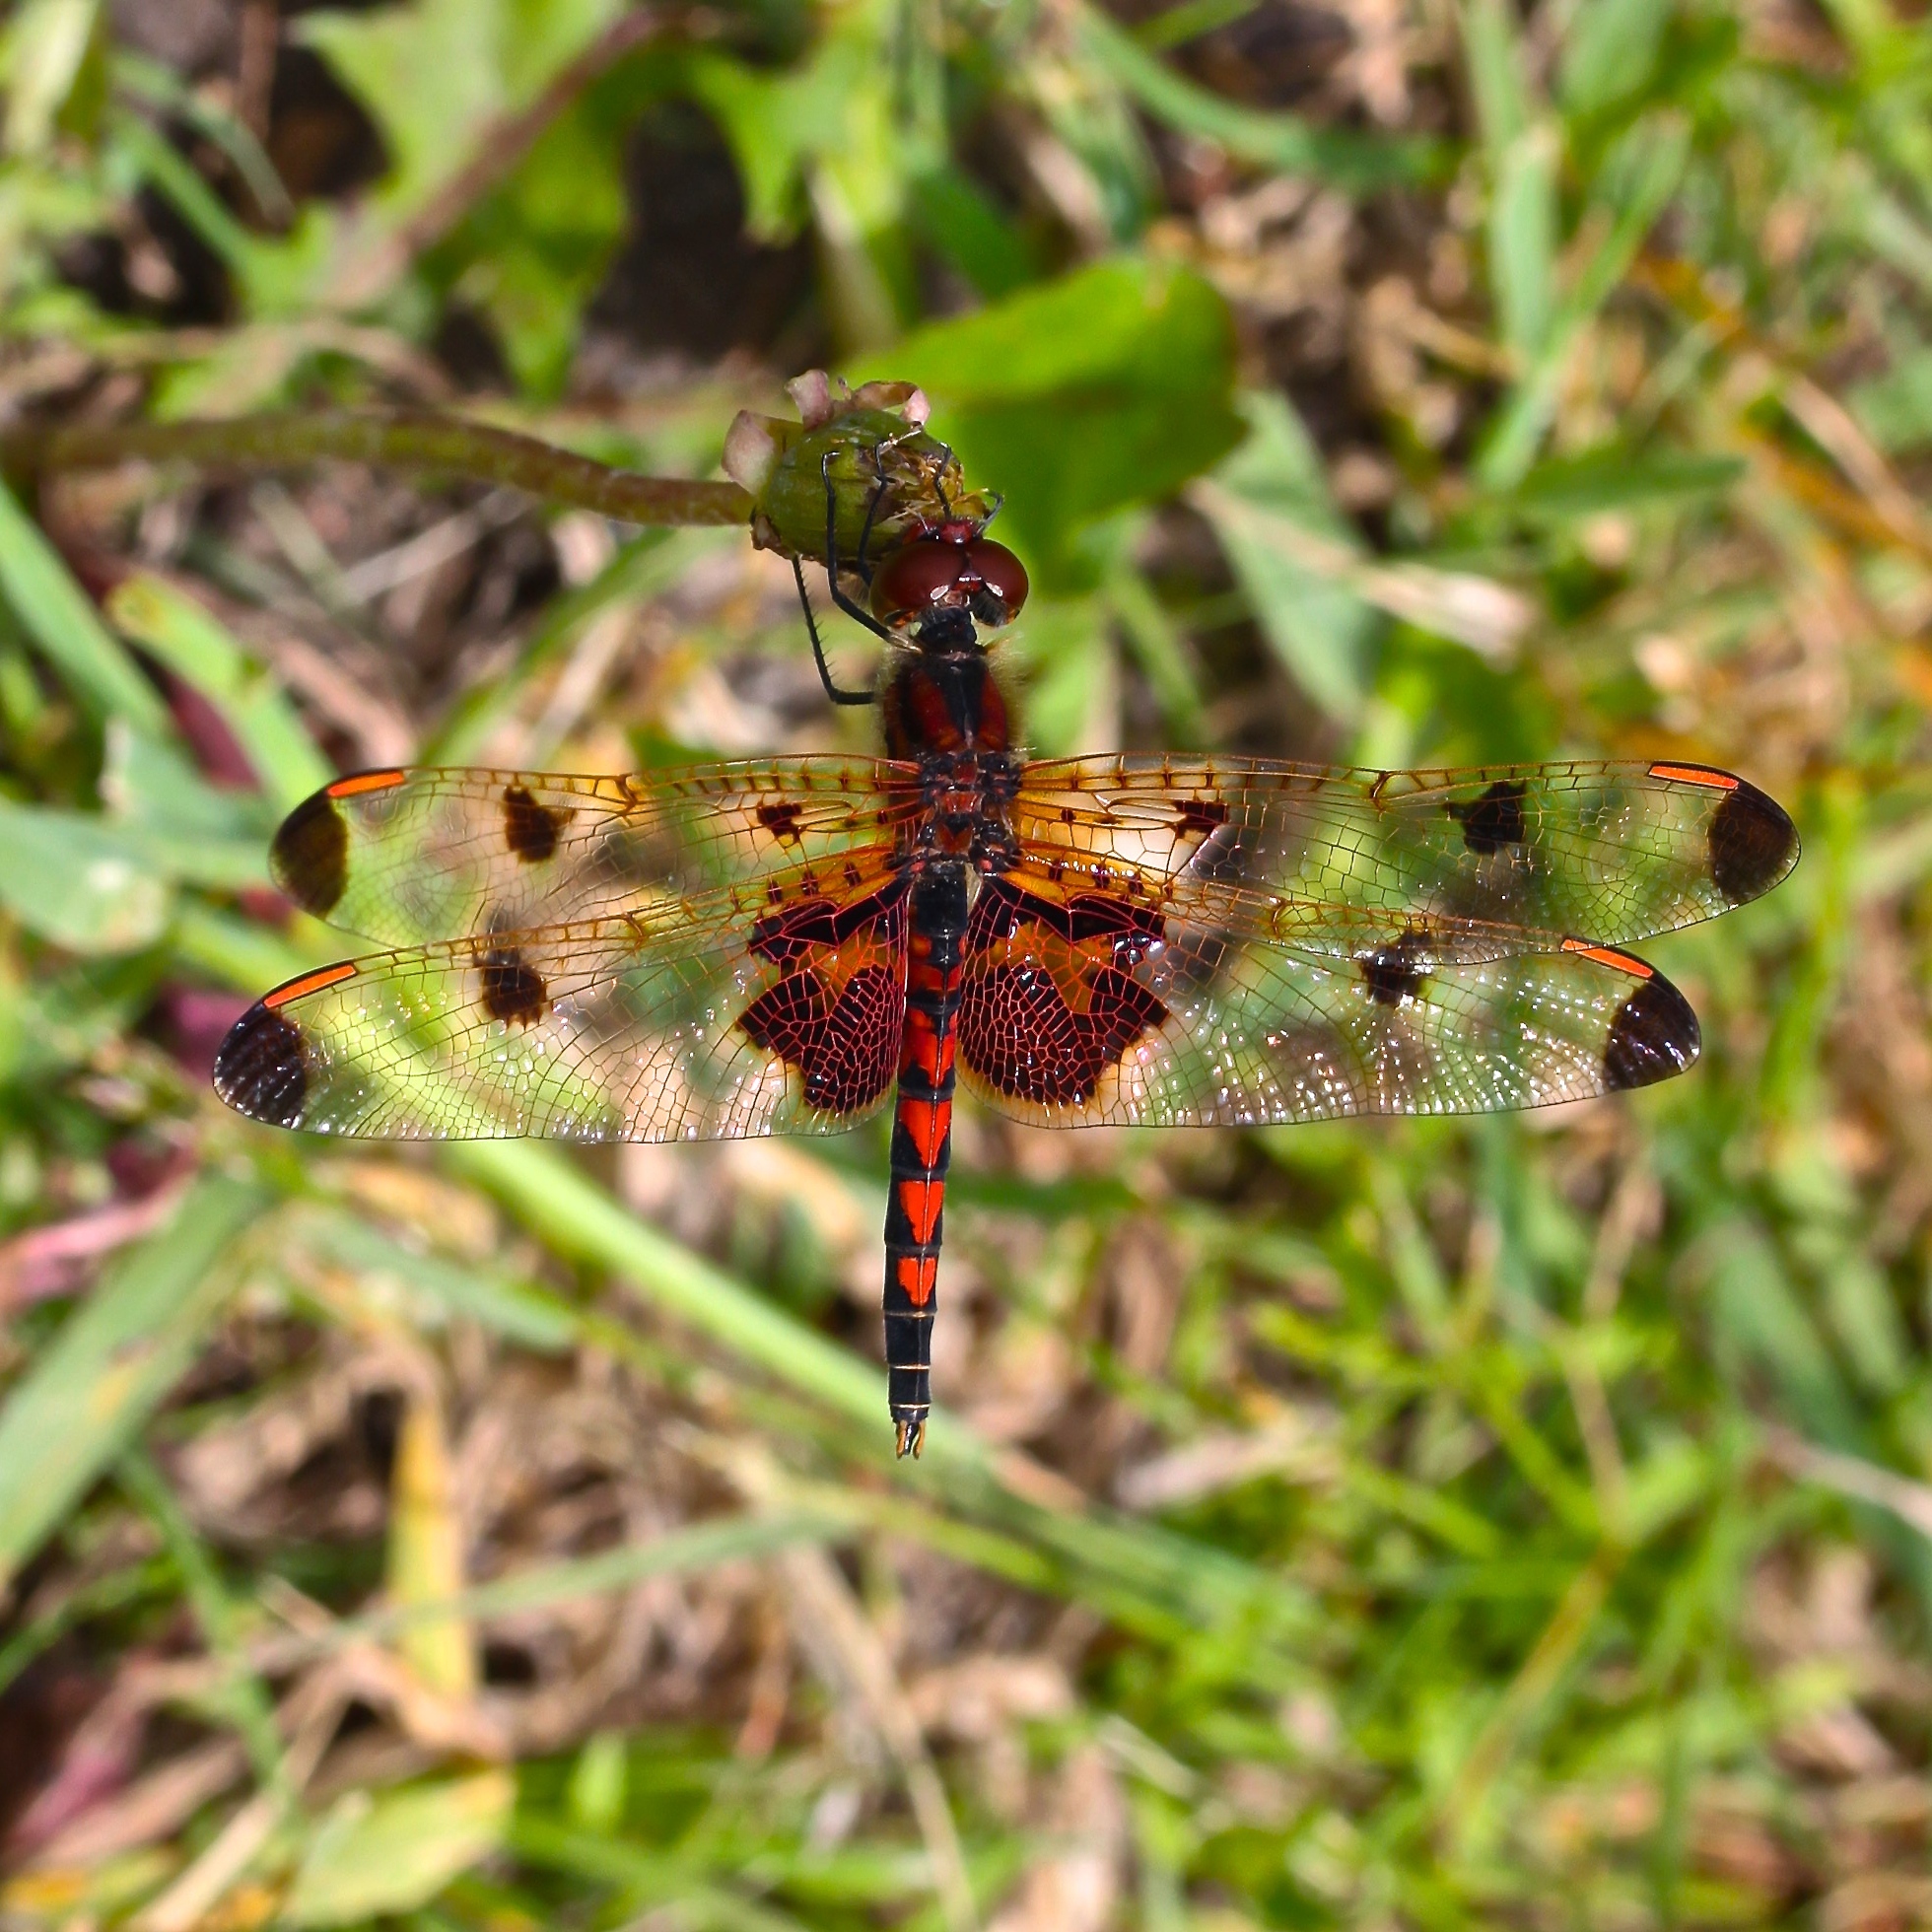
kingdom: Animalia
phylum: Arthropoda
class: Insecta
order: Odonata
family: Libellulidae
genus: Celithemis
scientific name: Celithemis elisa
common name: Calico pennant
